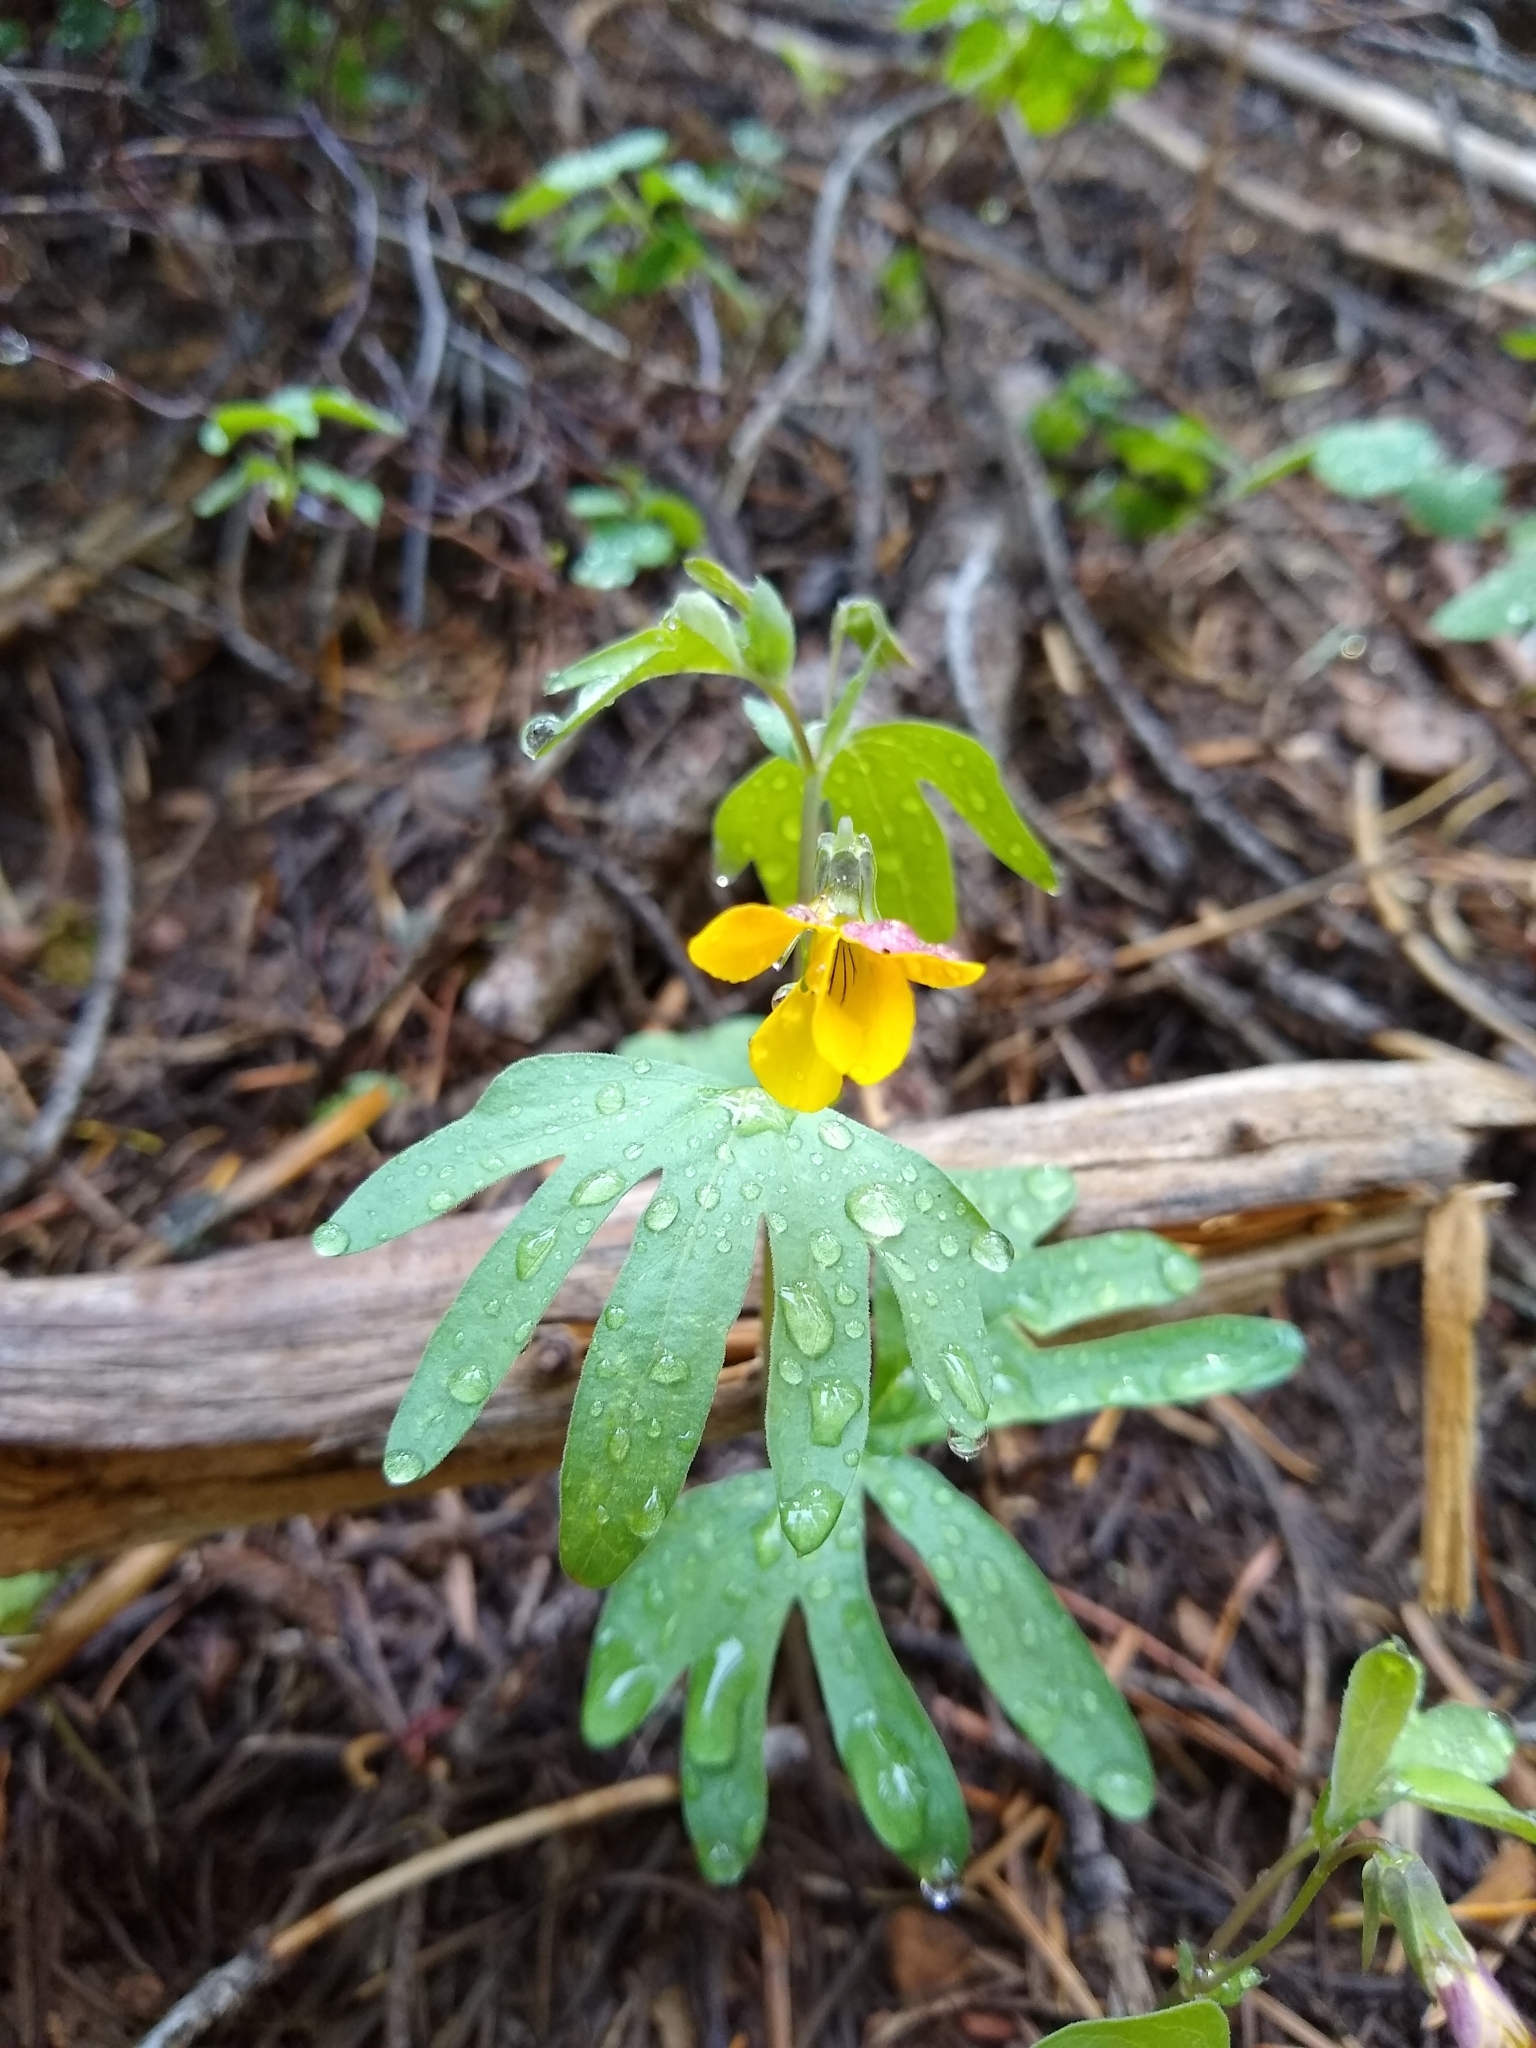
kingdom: Plantae
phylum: Tracheophyta
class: Magnoliopsida
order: Malpighiales
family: Violaceae
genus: Viola
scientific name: Viola lobata
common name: Pine violet
